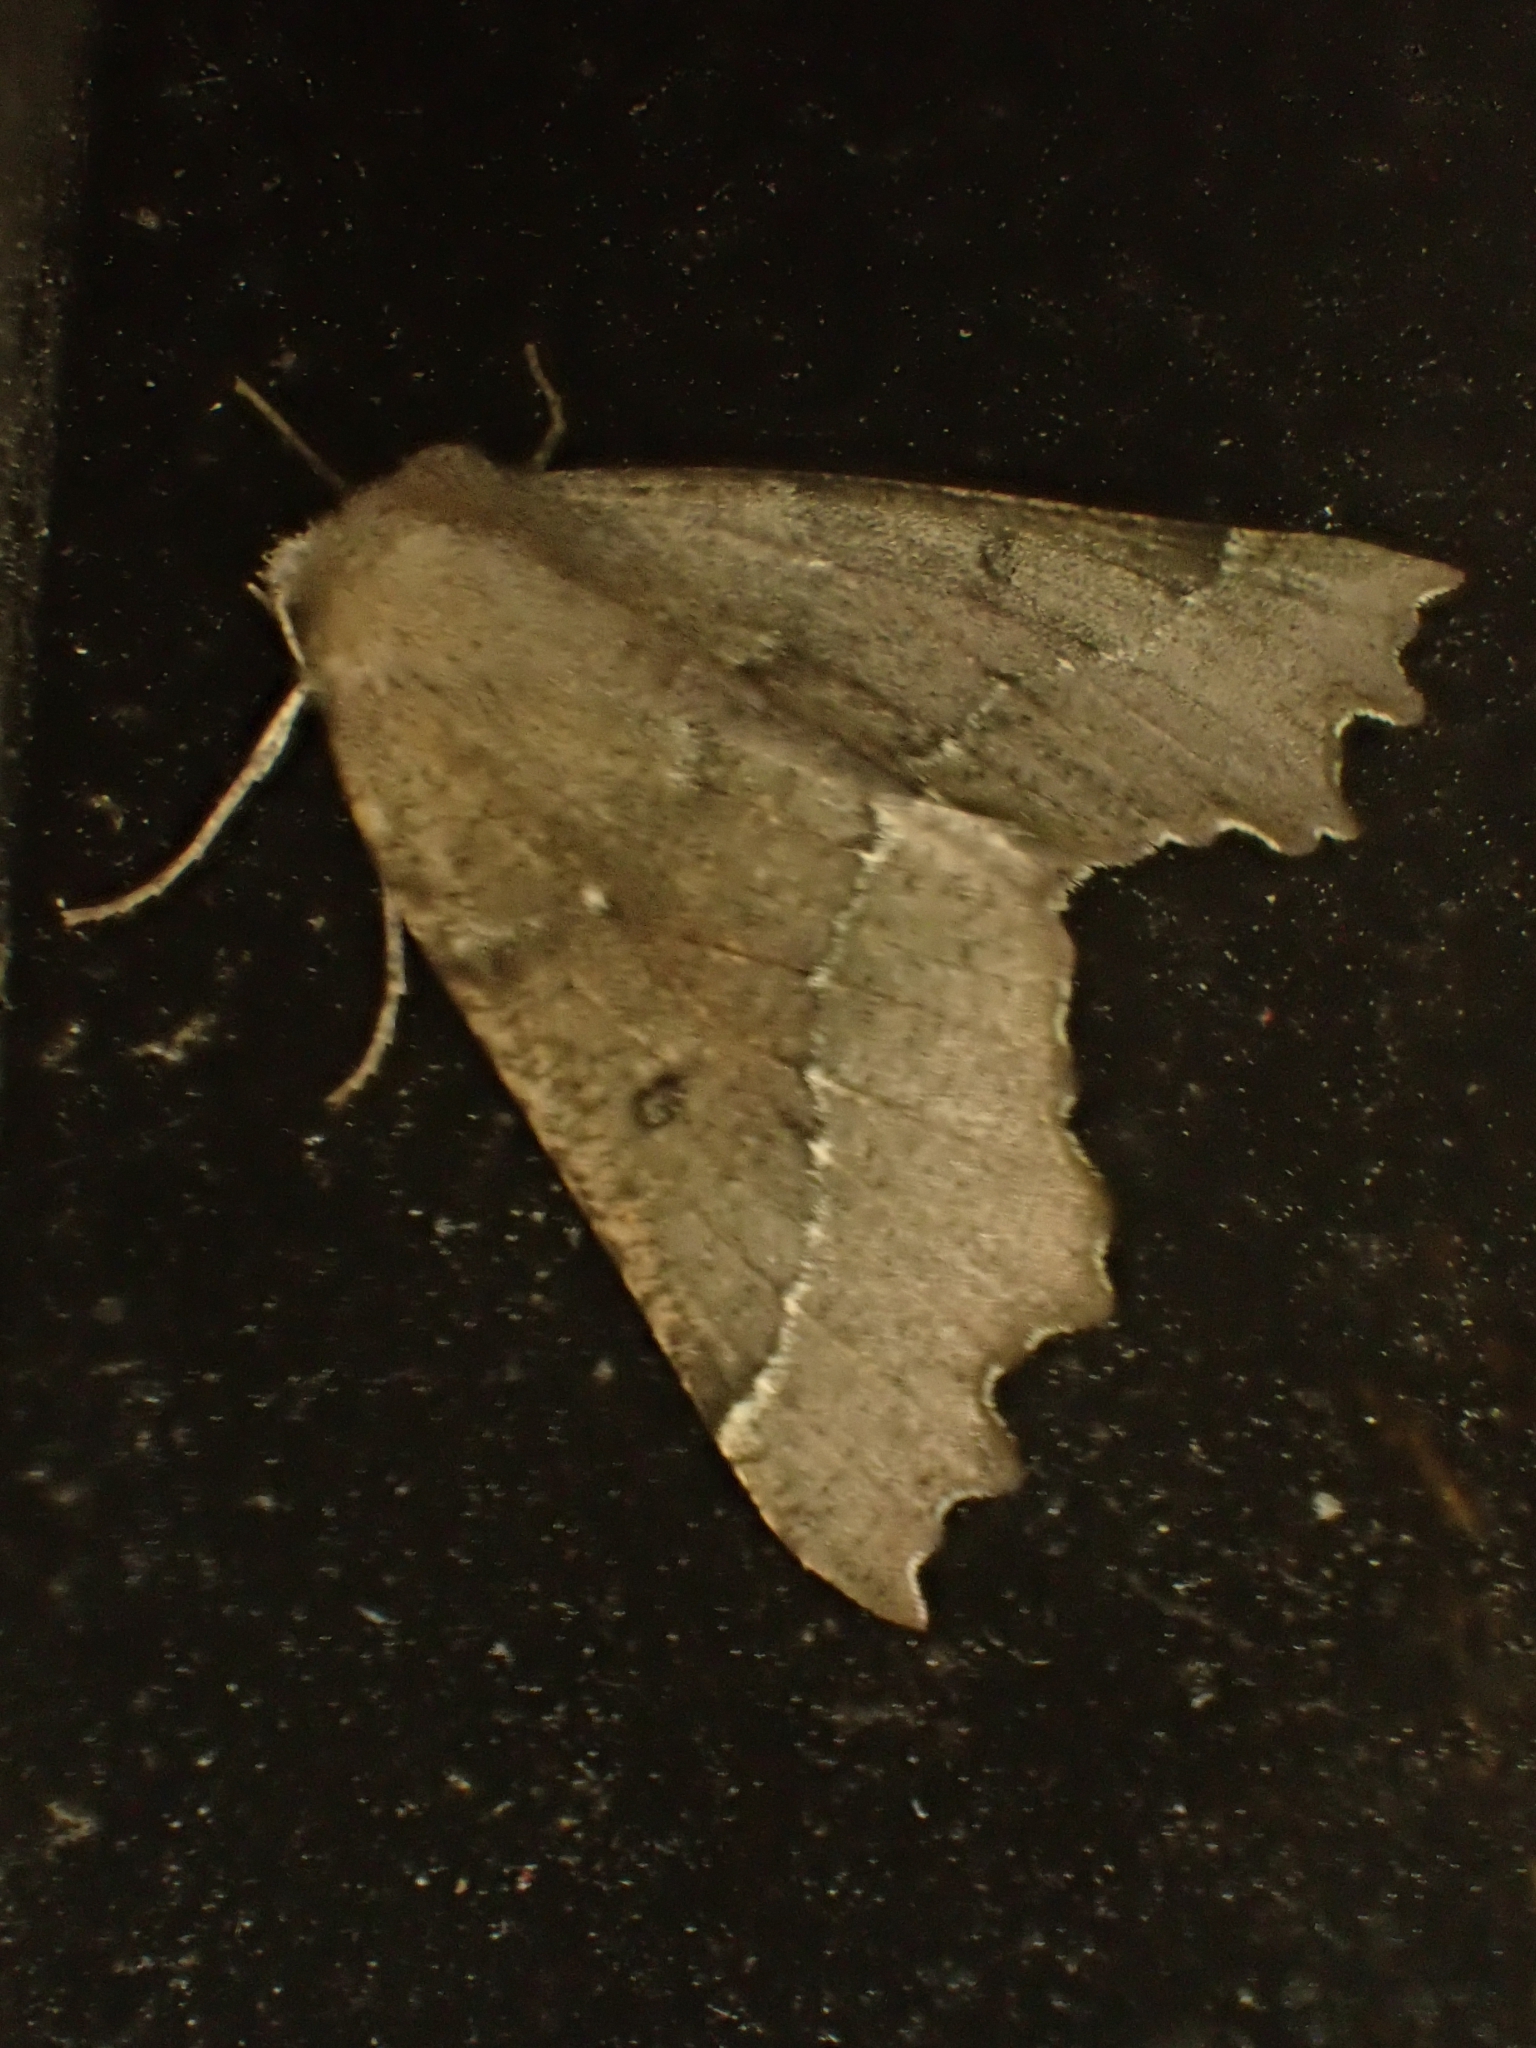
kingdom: Animalia
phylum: Arthropoda
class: Insecta
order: Lepidoptera
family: Geometridae
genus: Odontopera
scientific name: Odontopera bidentata
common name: Scalloped hazel
